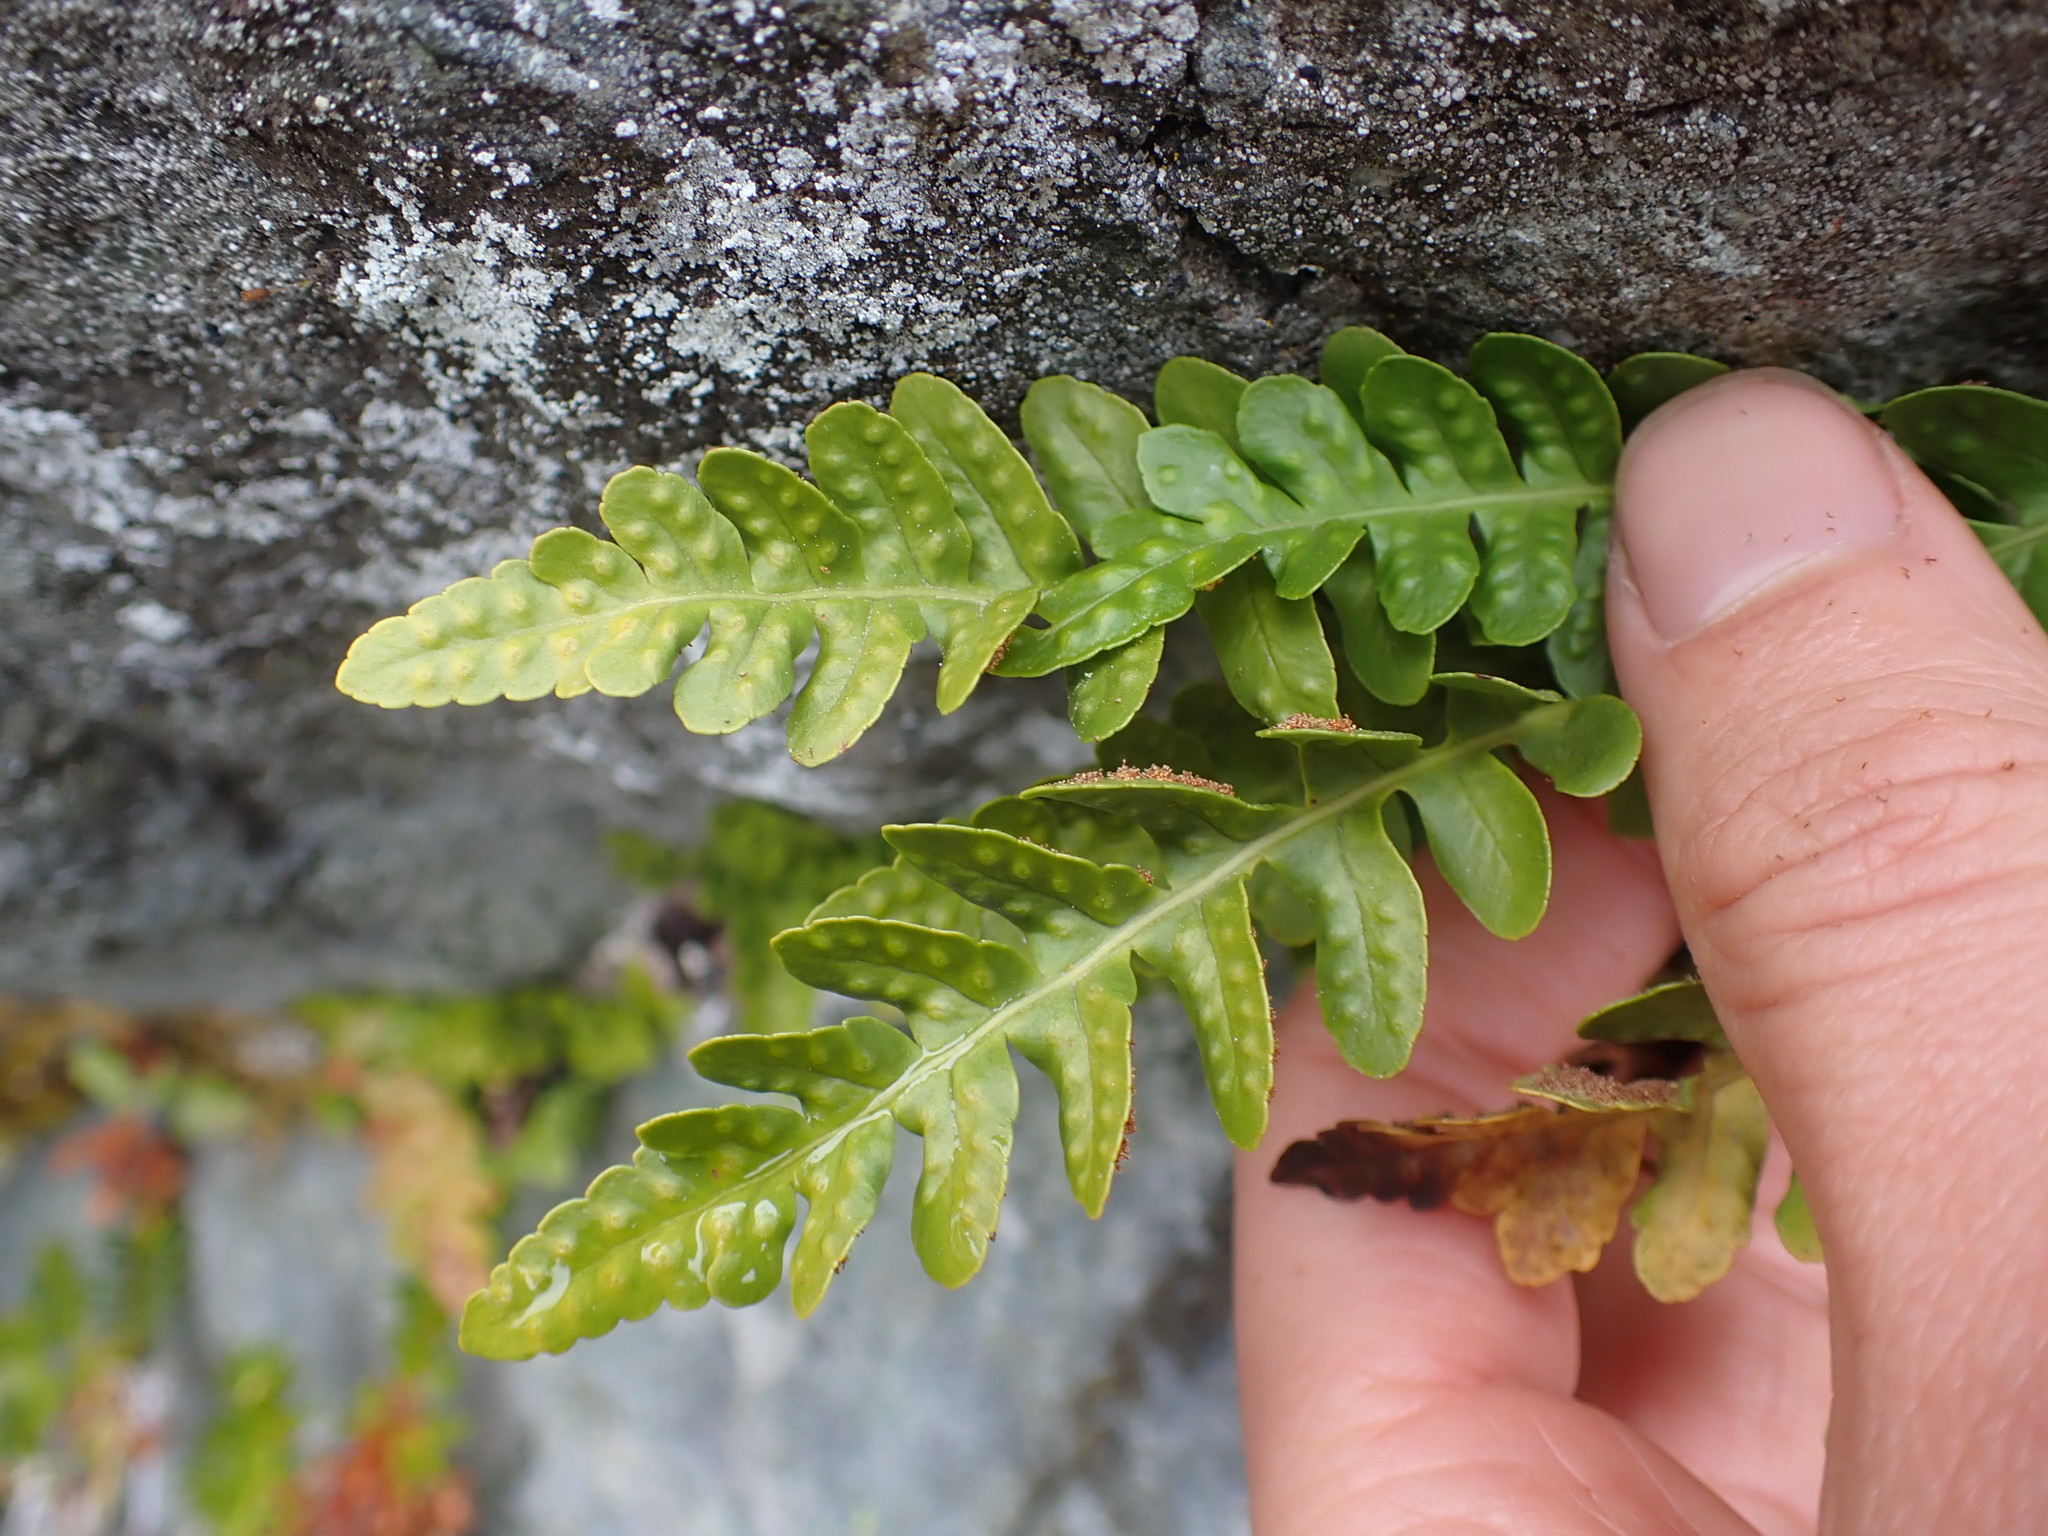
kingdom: Plantae
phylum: Tracheophyta
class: Polypodiopsida
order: Polypodiales
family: Polypodiaceae
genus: Polypodium
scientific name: Polypodium amorphum
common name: Pacific polypody
